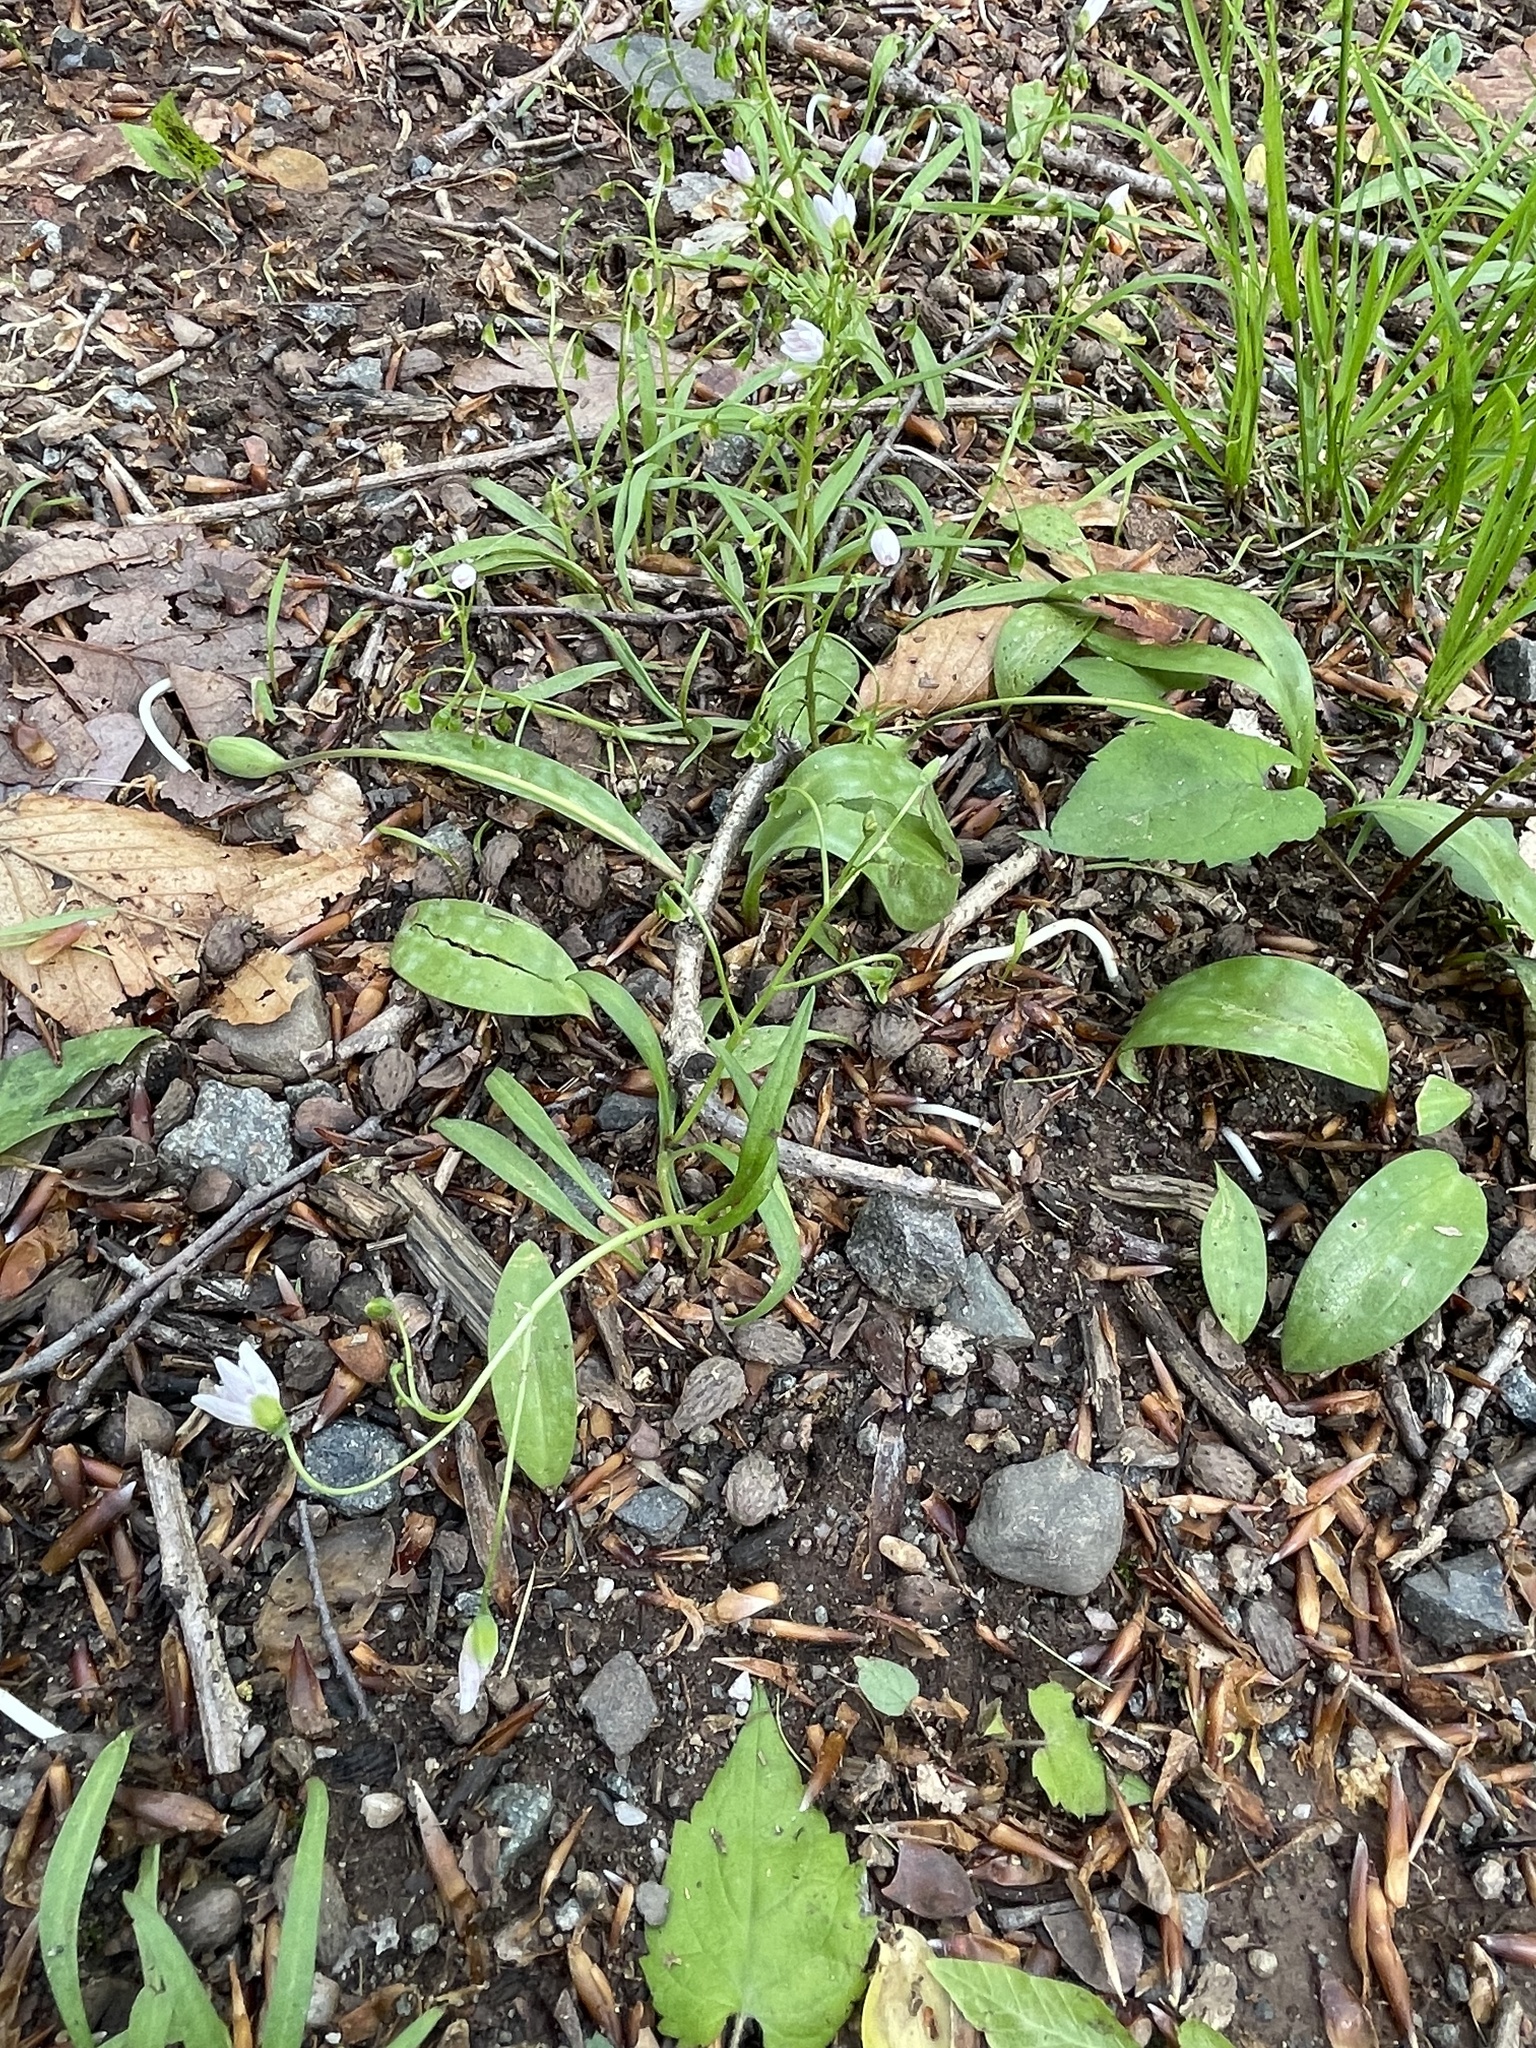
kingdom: Plantae
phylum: Tracheophyta
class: Magnoliopsida
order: Caryophyllales
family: Montiaceae
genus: Claytonia
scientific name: Claytonia virginica
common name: Virginia springbeauty
